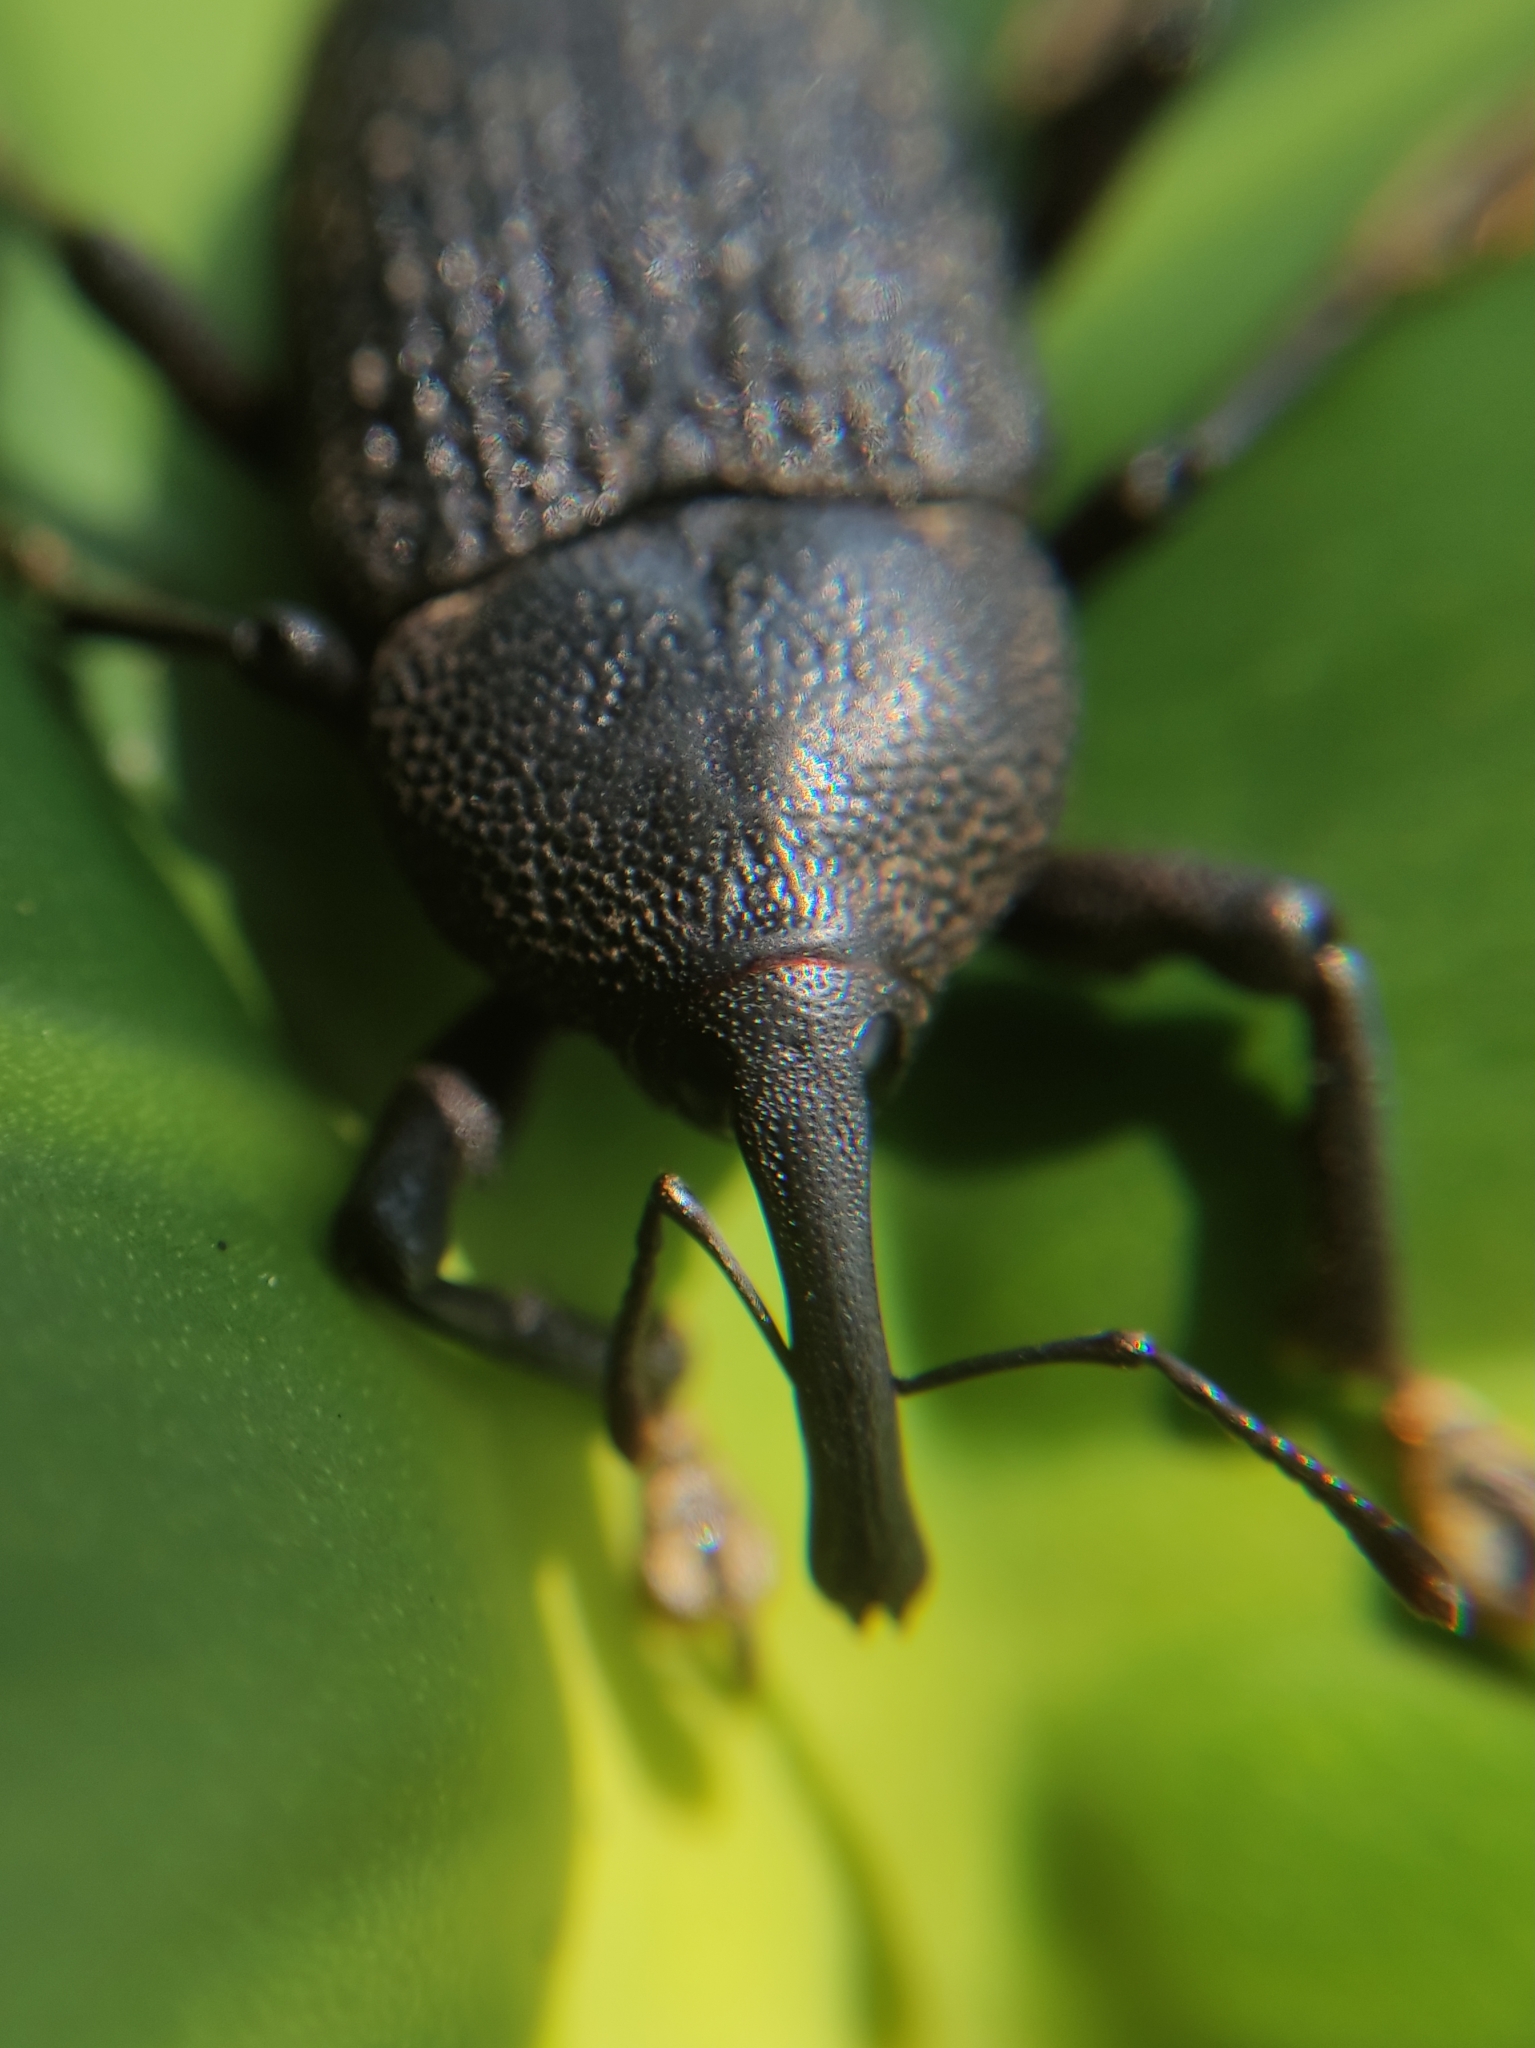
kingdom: Animalia
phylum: Arthropoda
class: Insecta
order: Coleoptera
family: Curculionidae
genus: Homalinotus
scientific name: Homalinotus coriaceus
